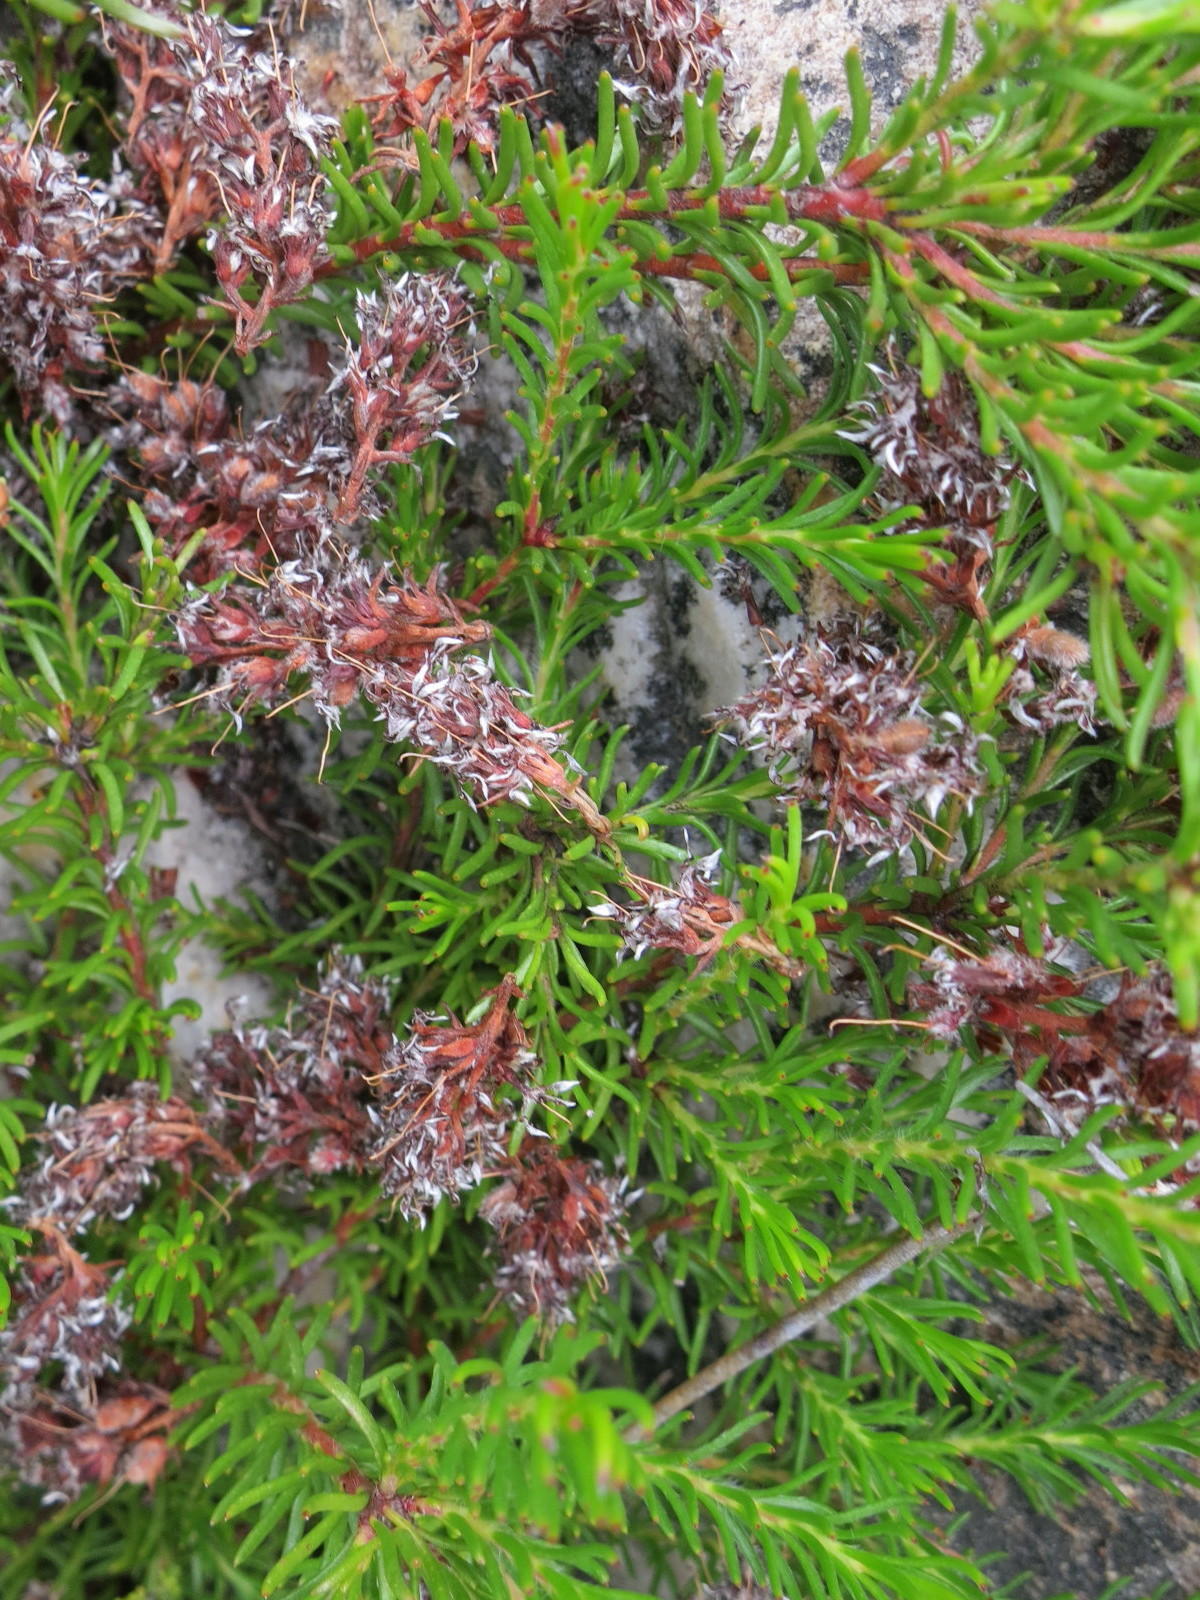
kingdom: Plantae
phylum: Tracheophyta
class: Magnoliopsida
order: Proteales
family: Proteaceae
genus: Spatalla
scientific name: Spatalla confusa
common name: Long-tube spoon
